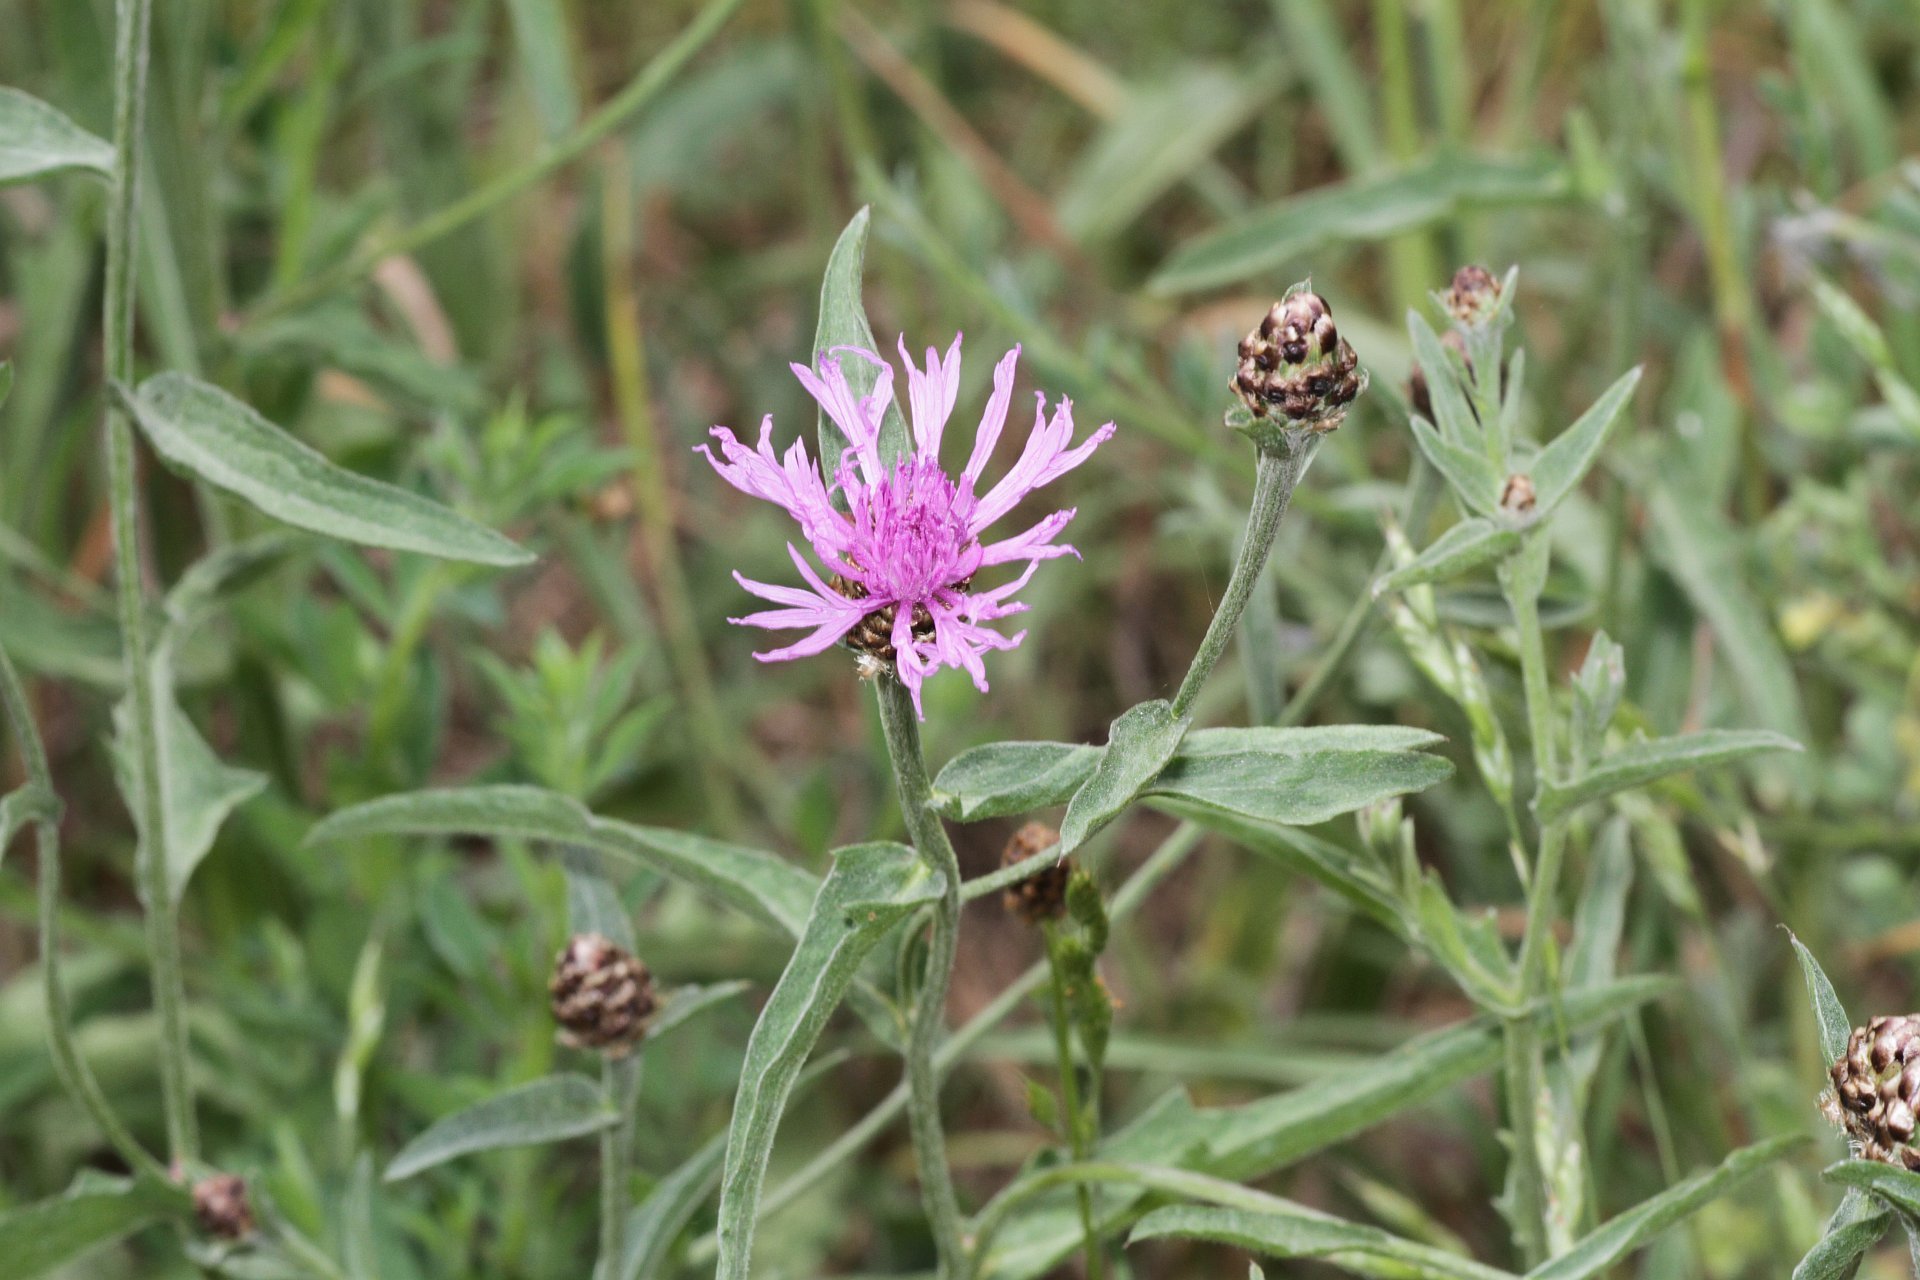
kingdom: Plantae
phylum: Tracheophyta
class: Magnoliopsida
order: Asterales
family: Asteraceae
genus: Centaurea
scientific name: Centaurea jacea
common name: Brown knapweed
